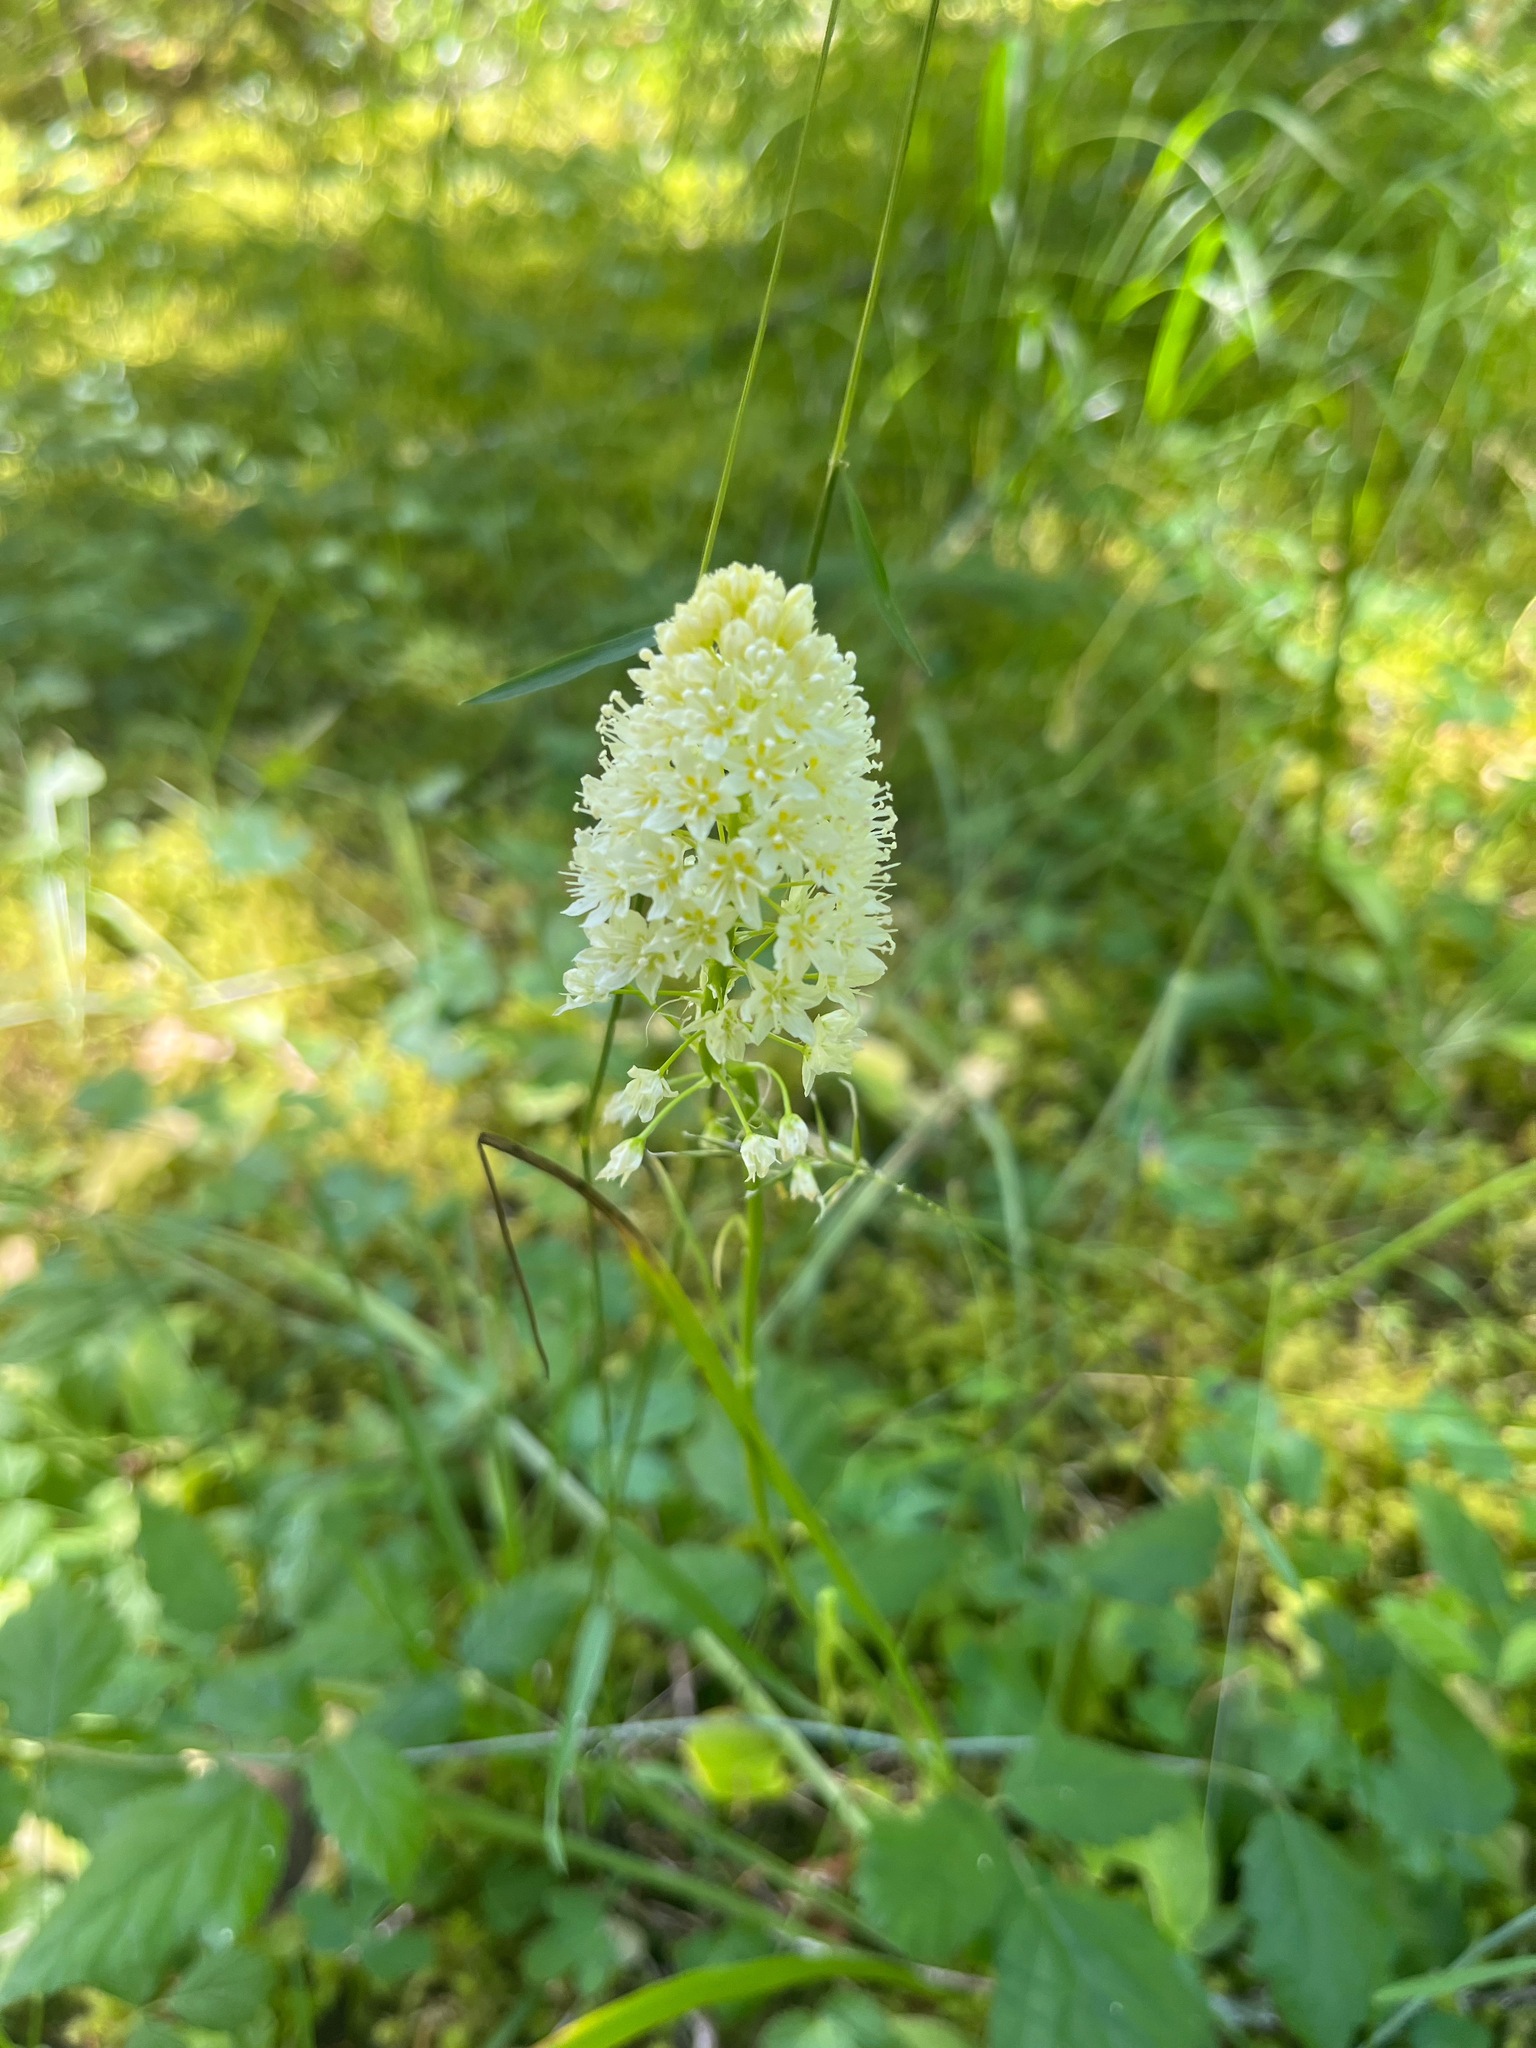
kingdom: Plantae
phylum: Tracheophyta
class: Liliopsida
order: Liliales
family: Melanthiaceae
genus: Toxicoscordion
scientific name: Toxicoscordion venenosum
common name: Meadow death camas
